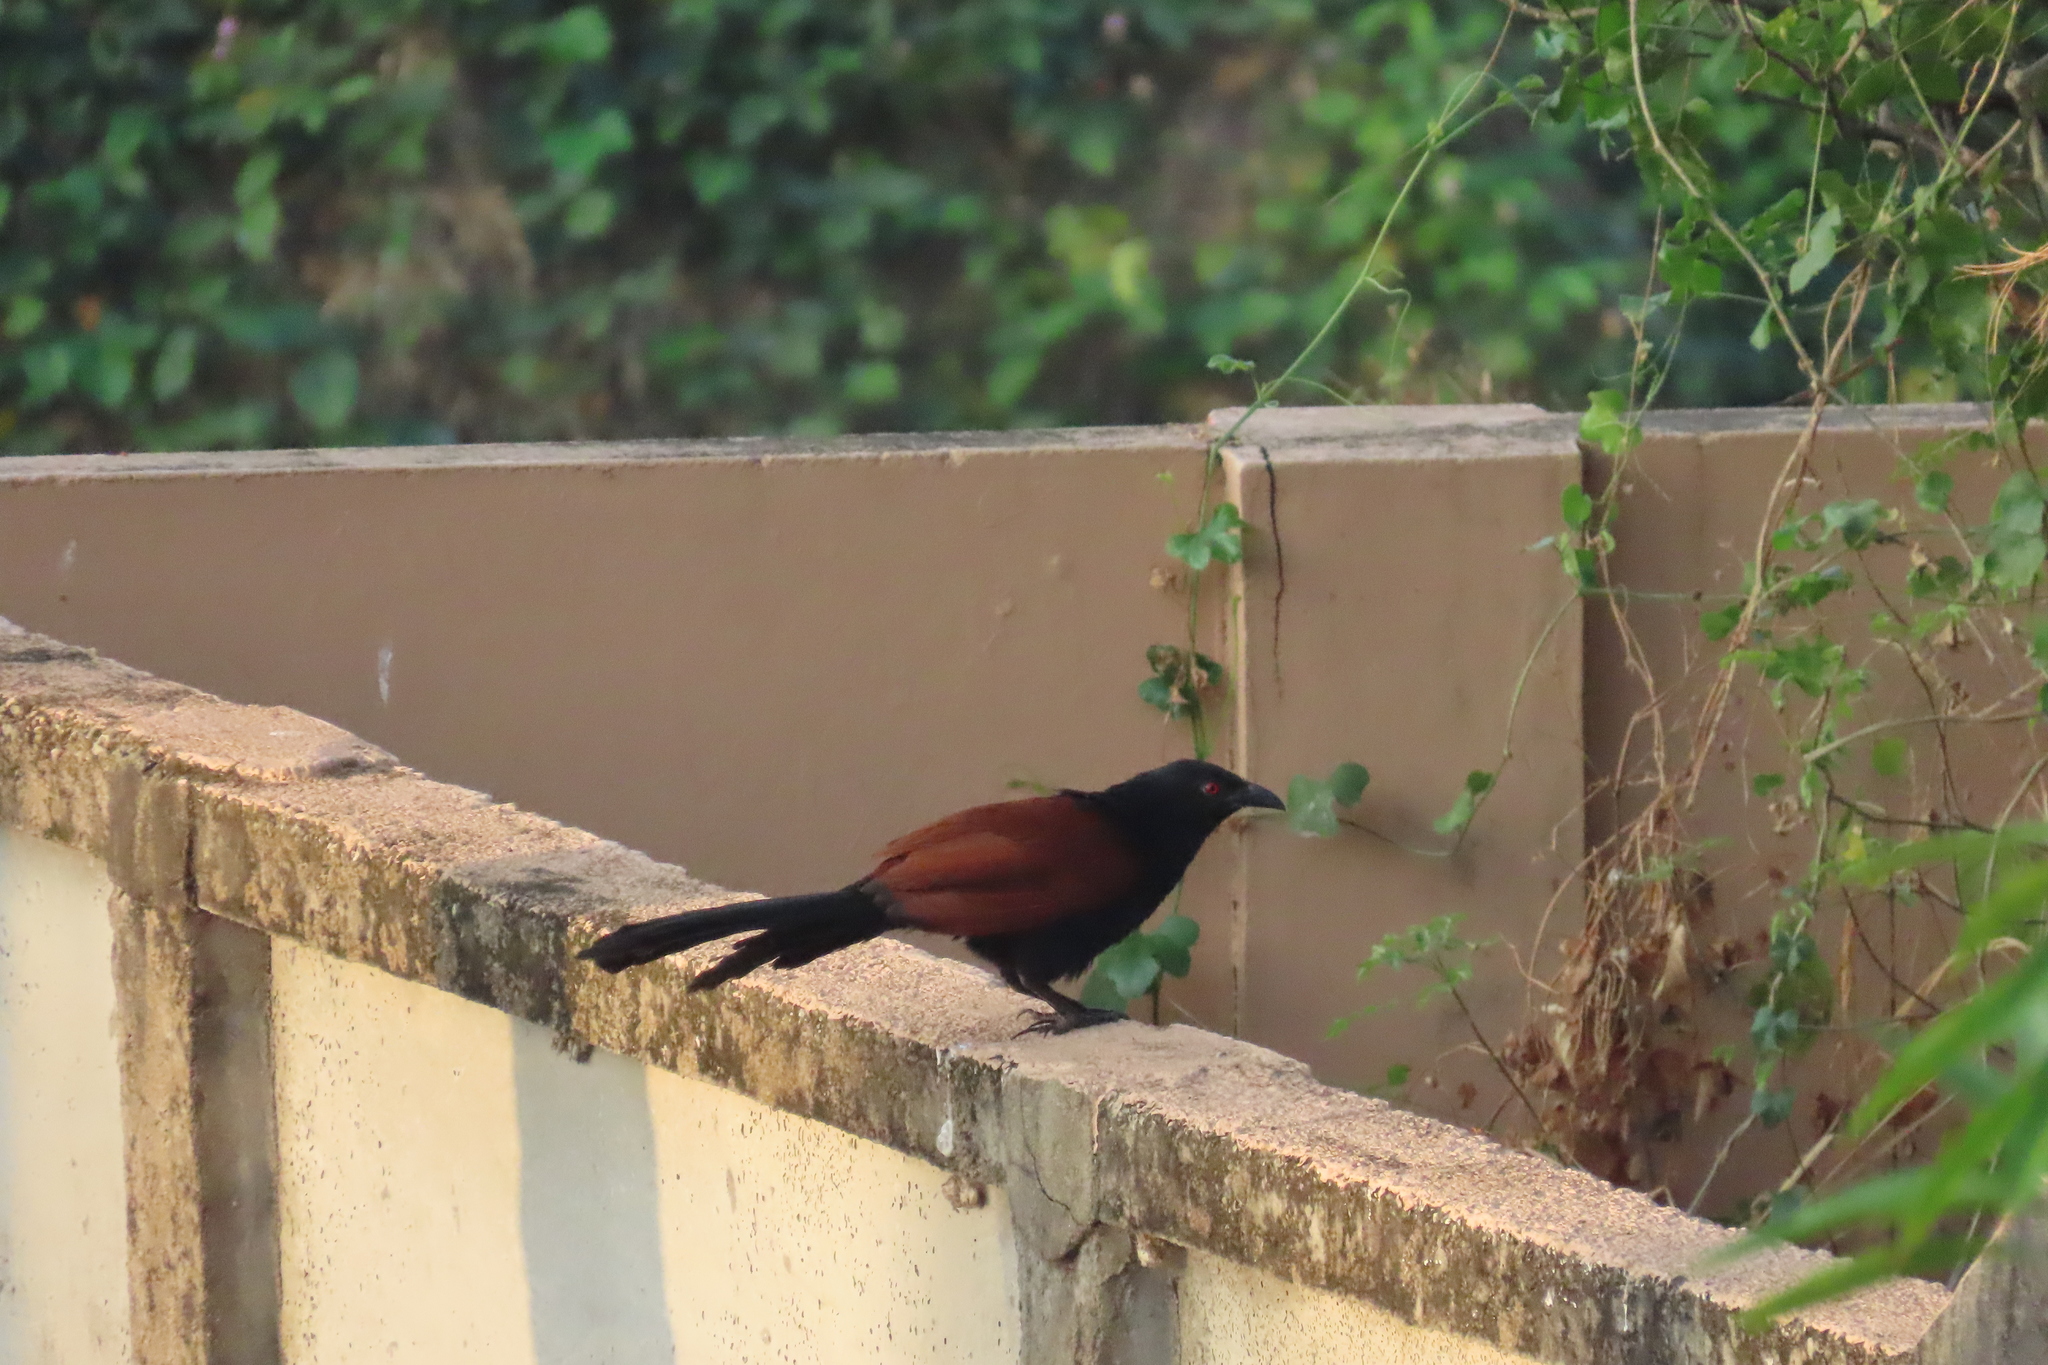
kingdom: Animalia
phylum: Chordata
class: Aves
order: Cuculiformes
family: Cuculidae
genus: Centropus
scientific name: Centropus sinensis
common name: Greater coucal
